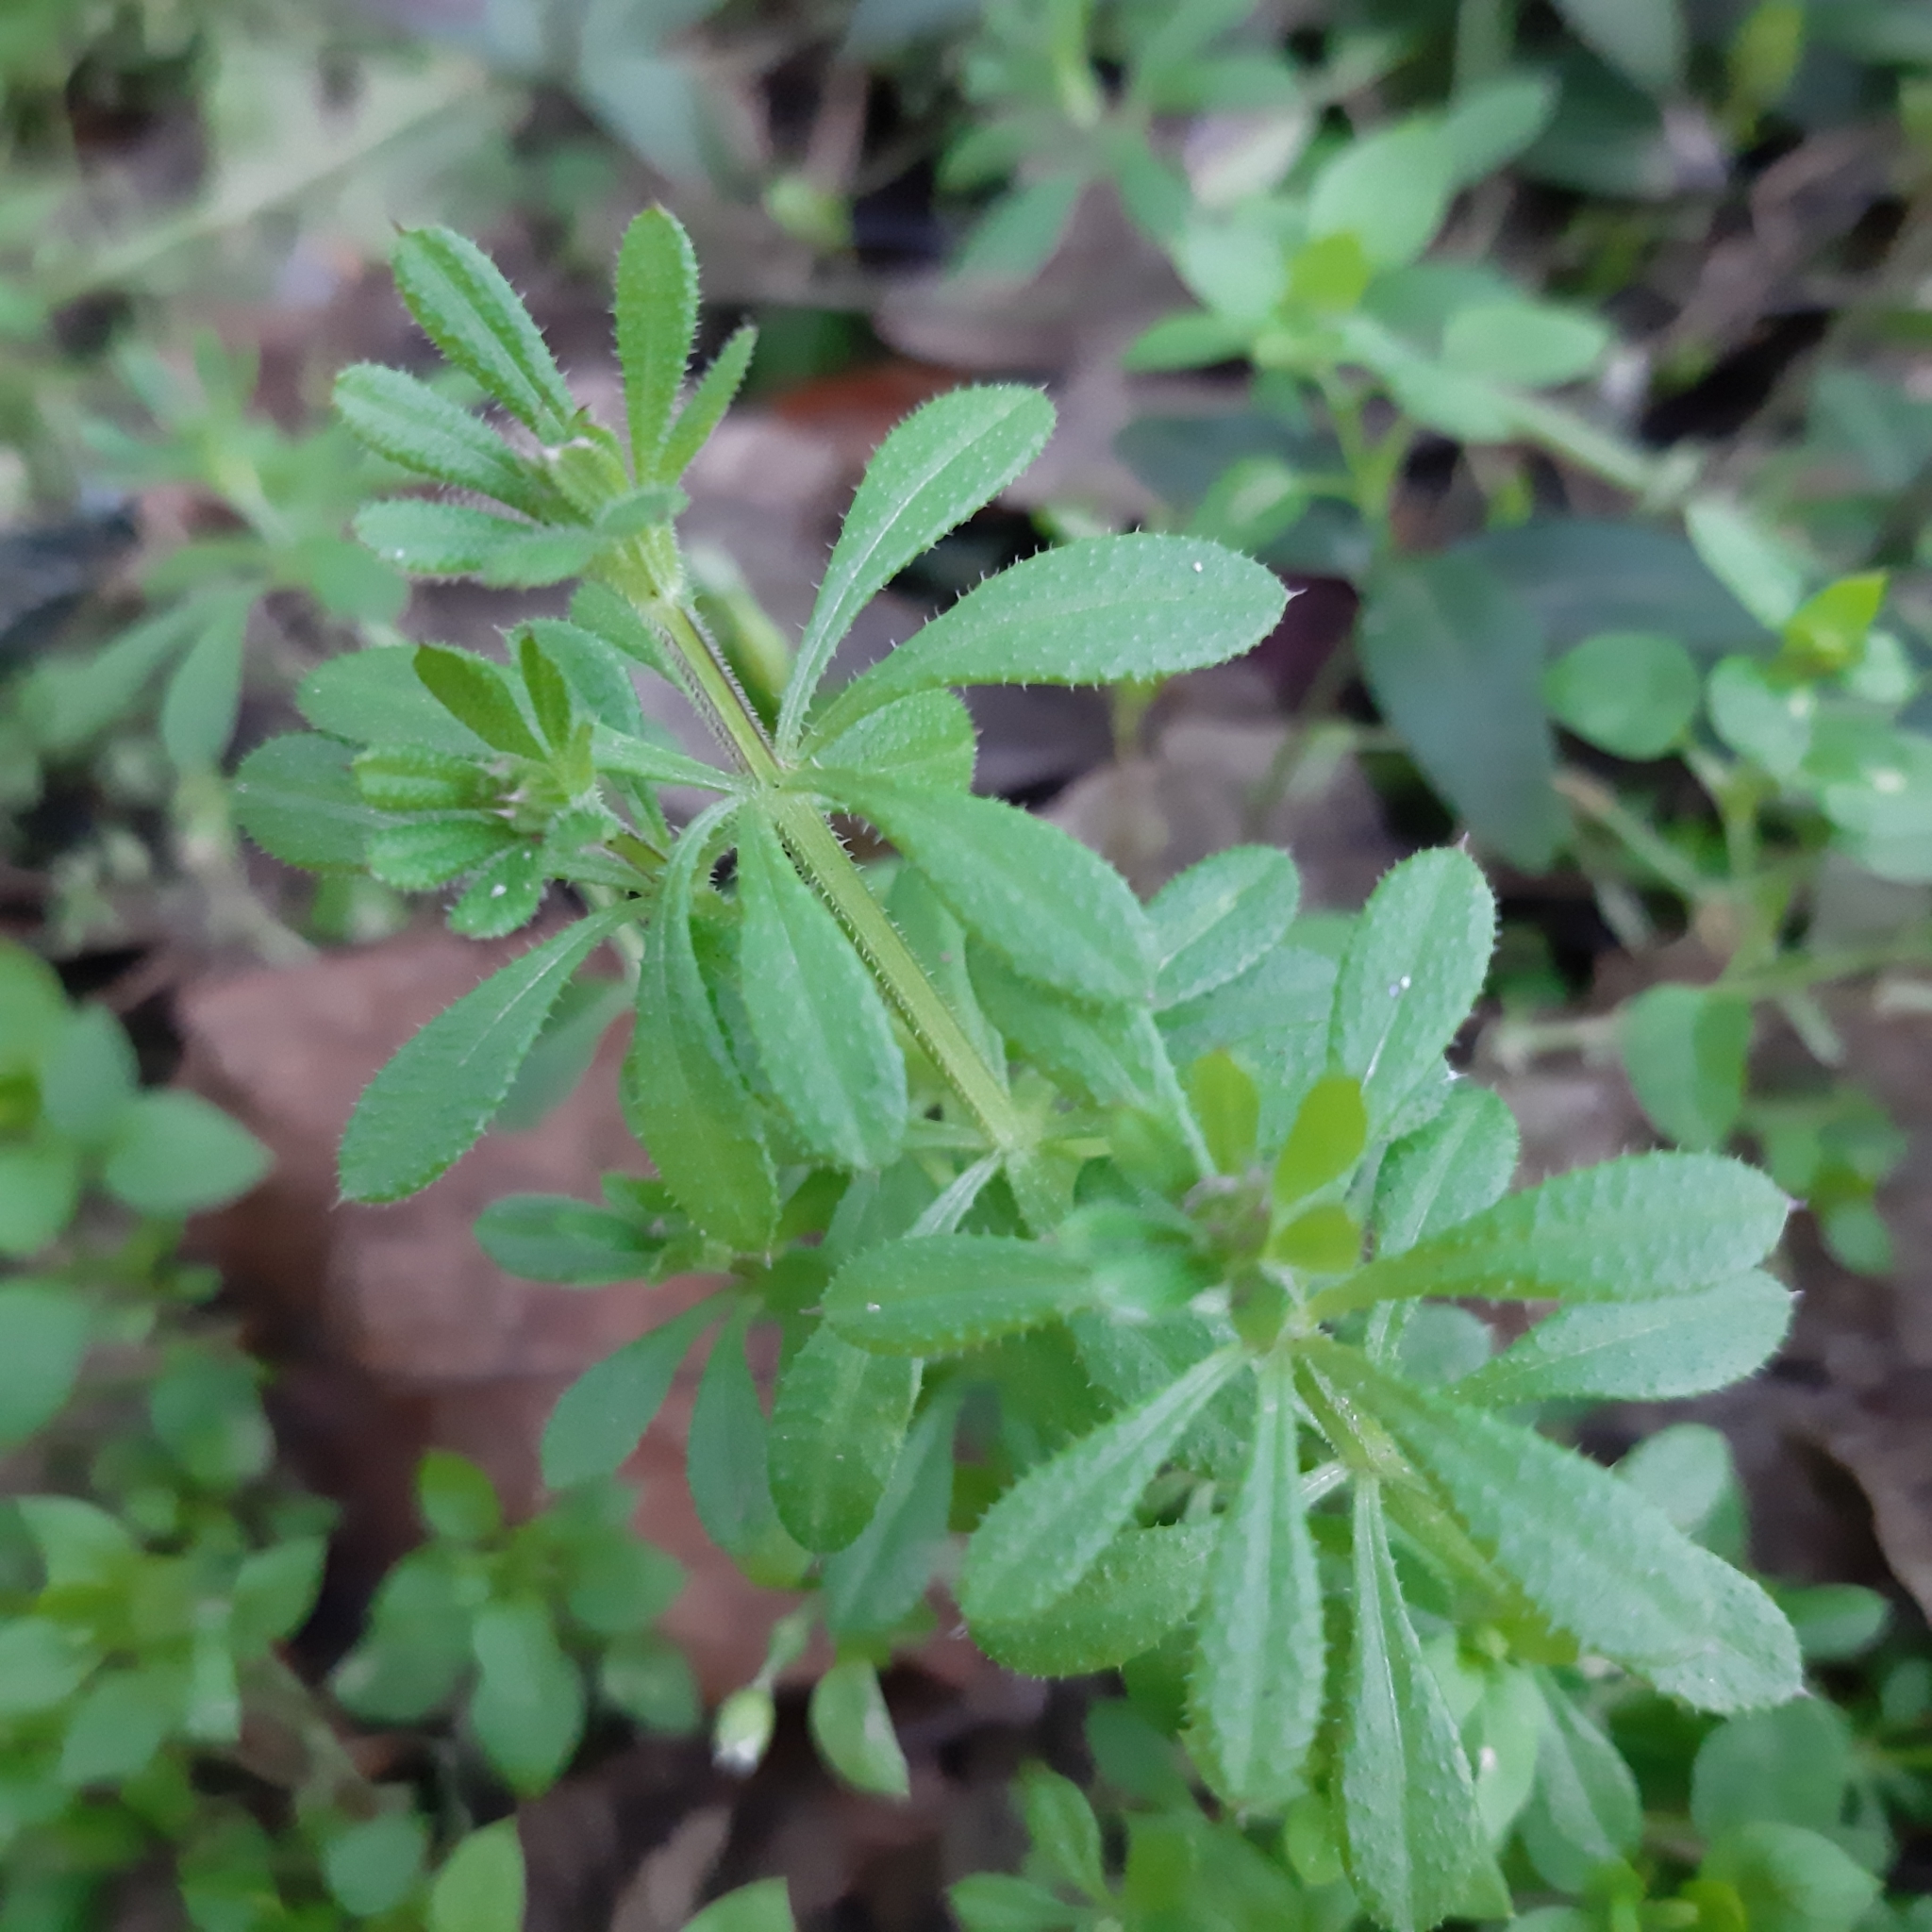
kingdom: Plantae
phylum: Tracheophyta
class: Magnoliopsida
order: Gentianales
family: Rubiaceae
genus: Galium
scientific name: Galium aparine
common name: Cleavers
